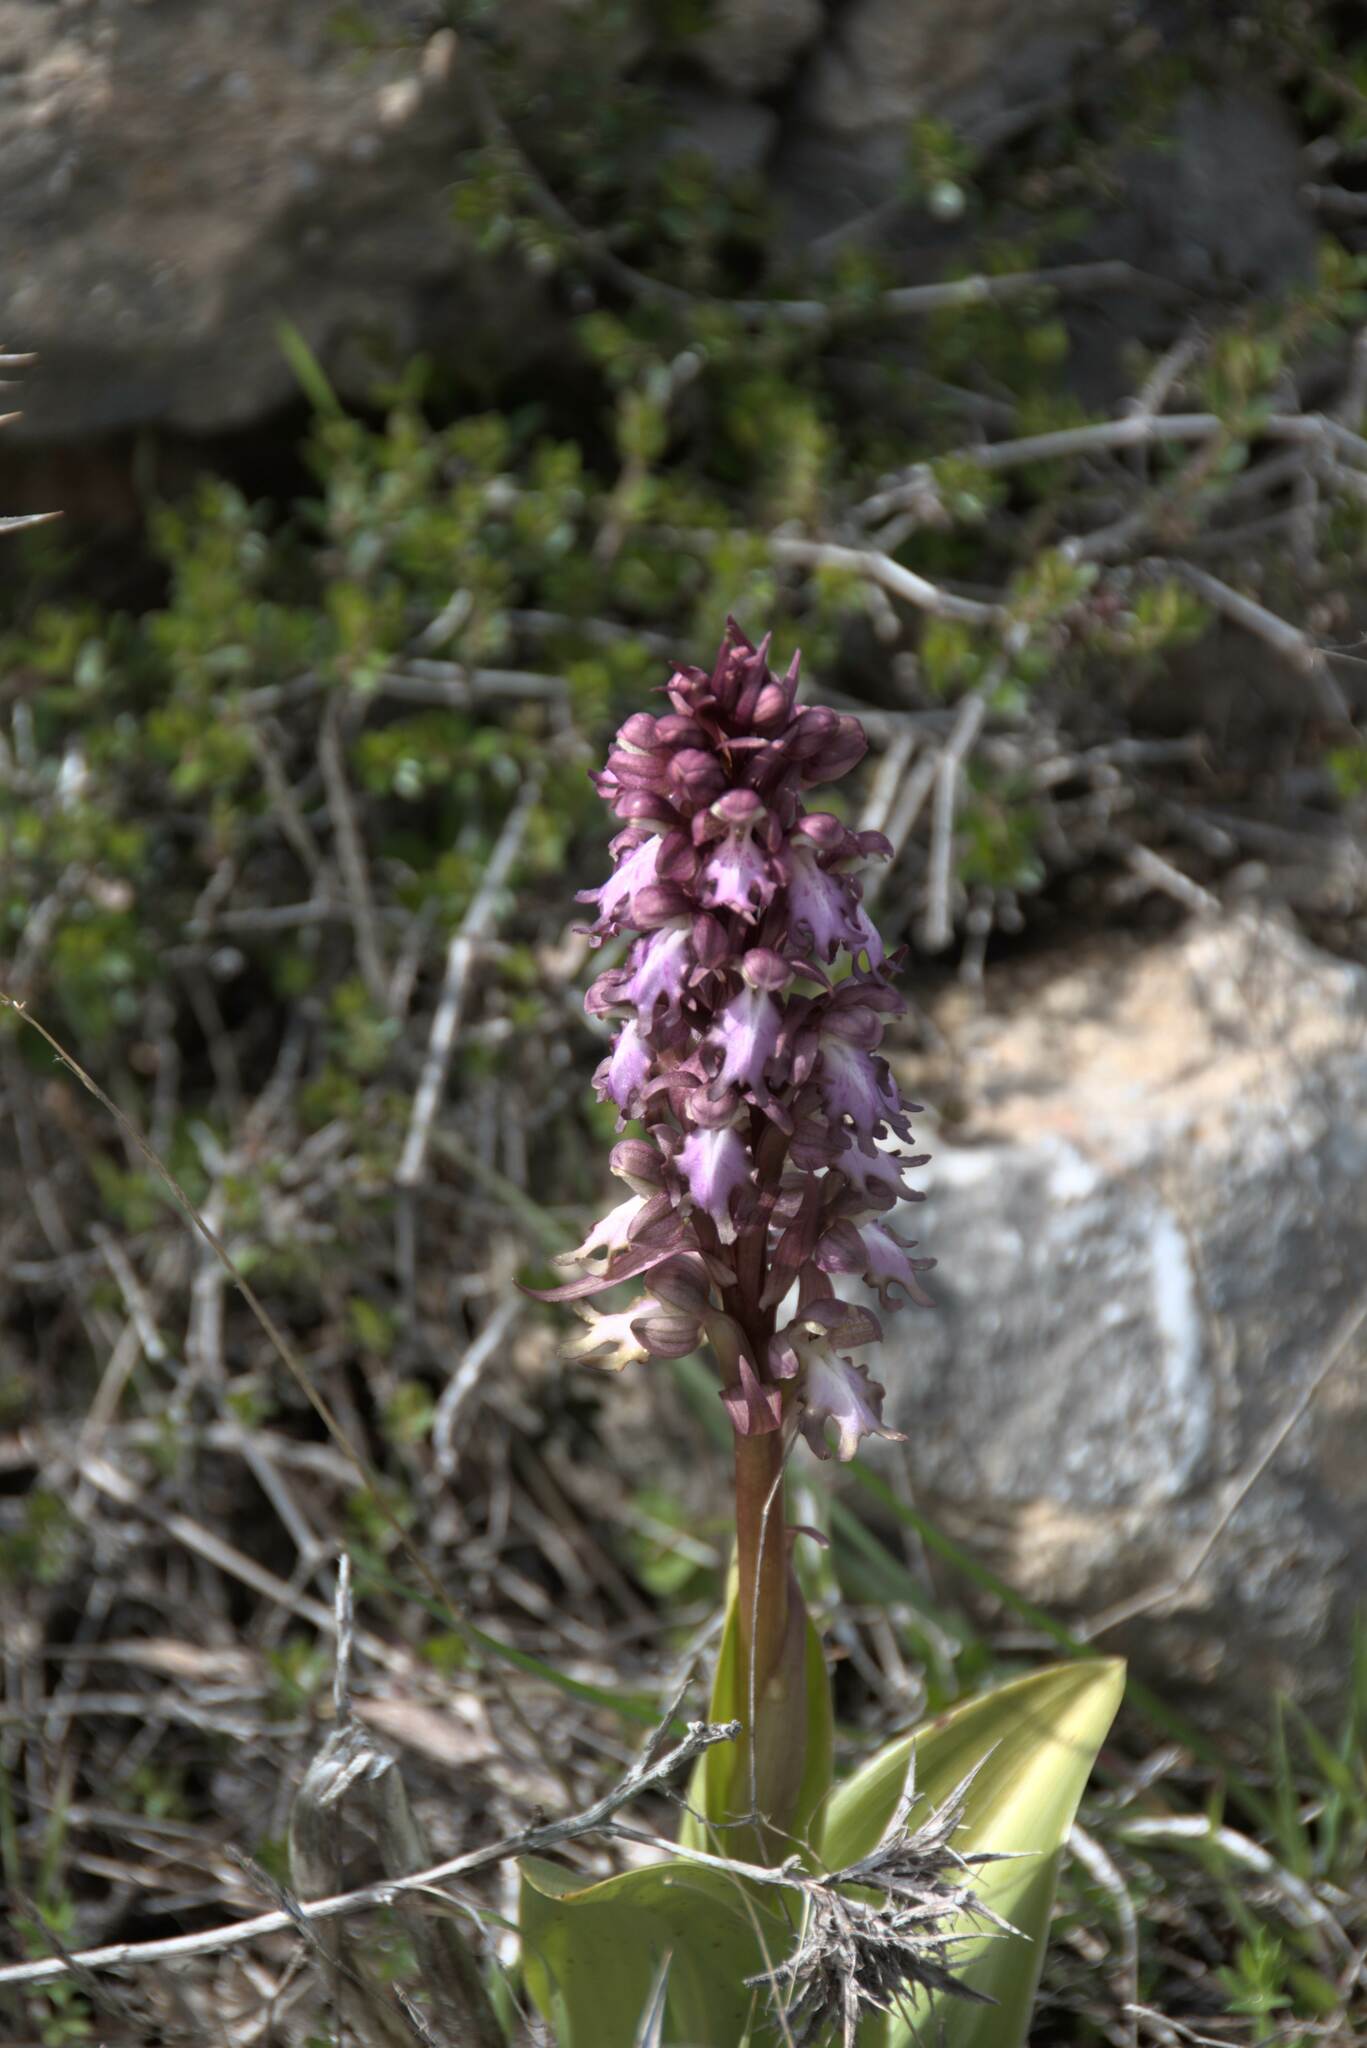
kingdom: Plantae
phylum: Tracheophyta
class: Liliopsida
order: Asparagales
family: Orchidaceae
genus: Himantoglossum
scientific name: Himantoglossum robertianum
